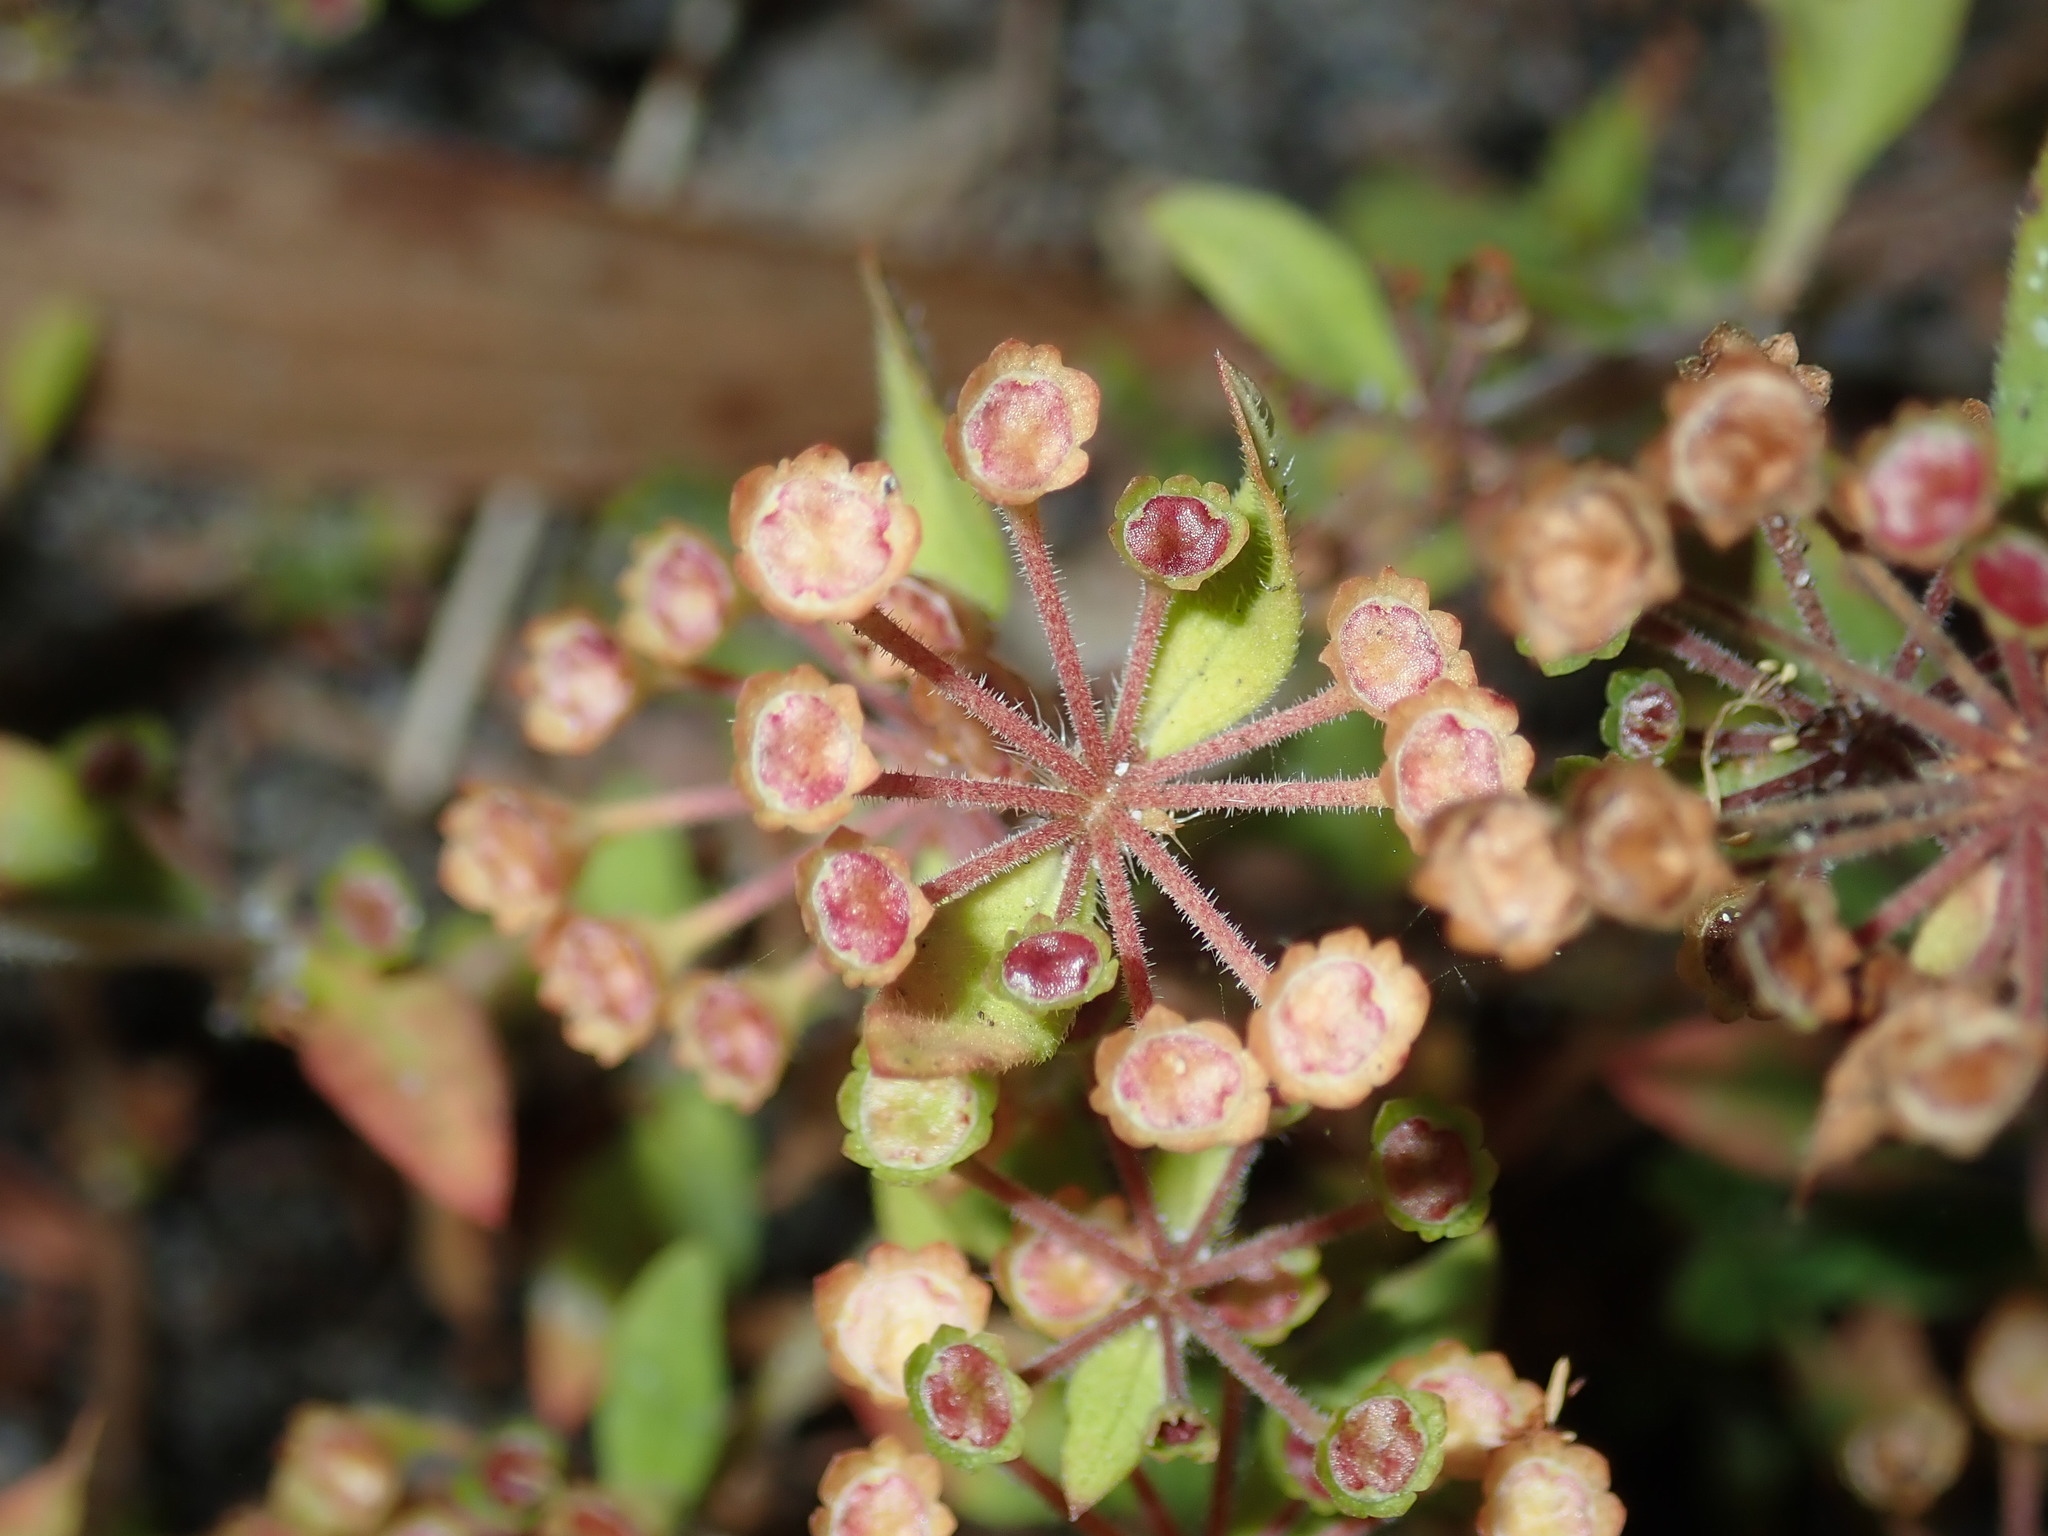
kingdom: Plantae
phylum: Tracheophyta
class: Magnoliopsida
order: Gentianales
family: Rubiaceae
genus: Pomax
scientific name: Pomax umbellata
